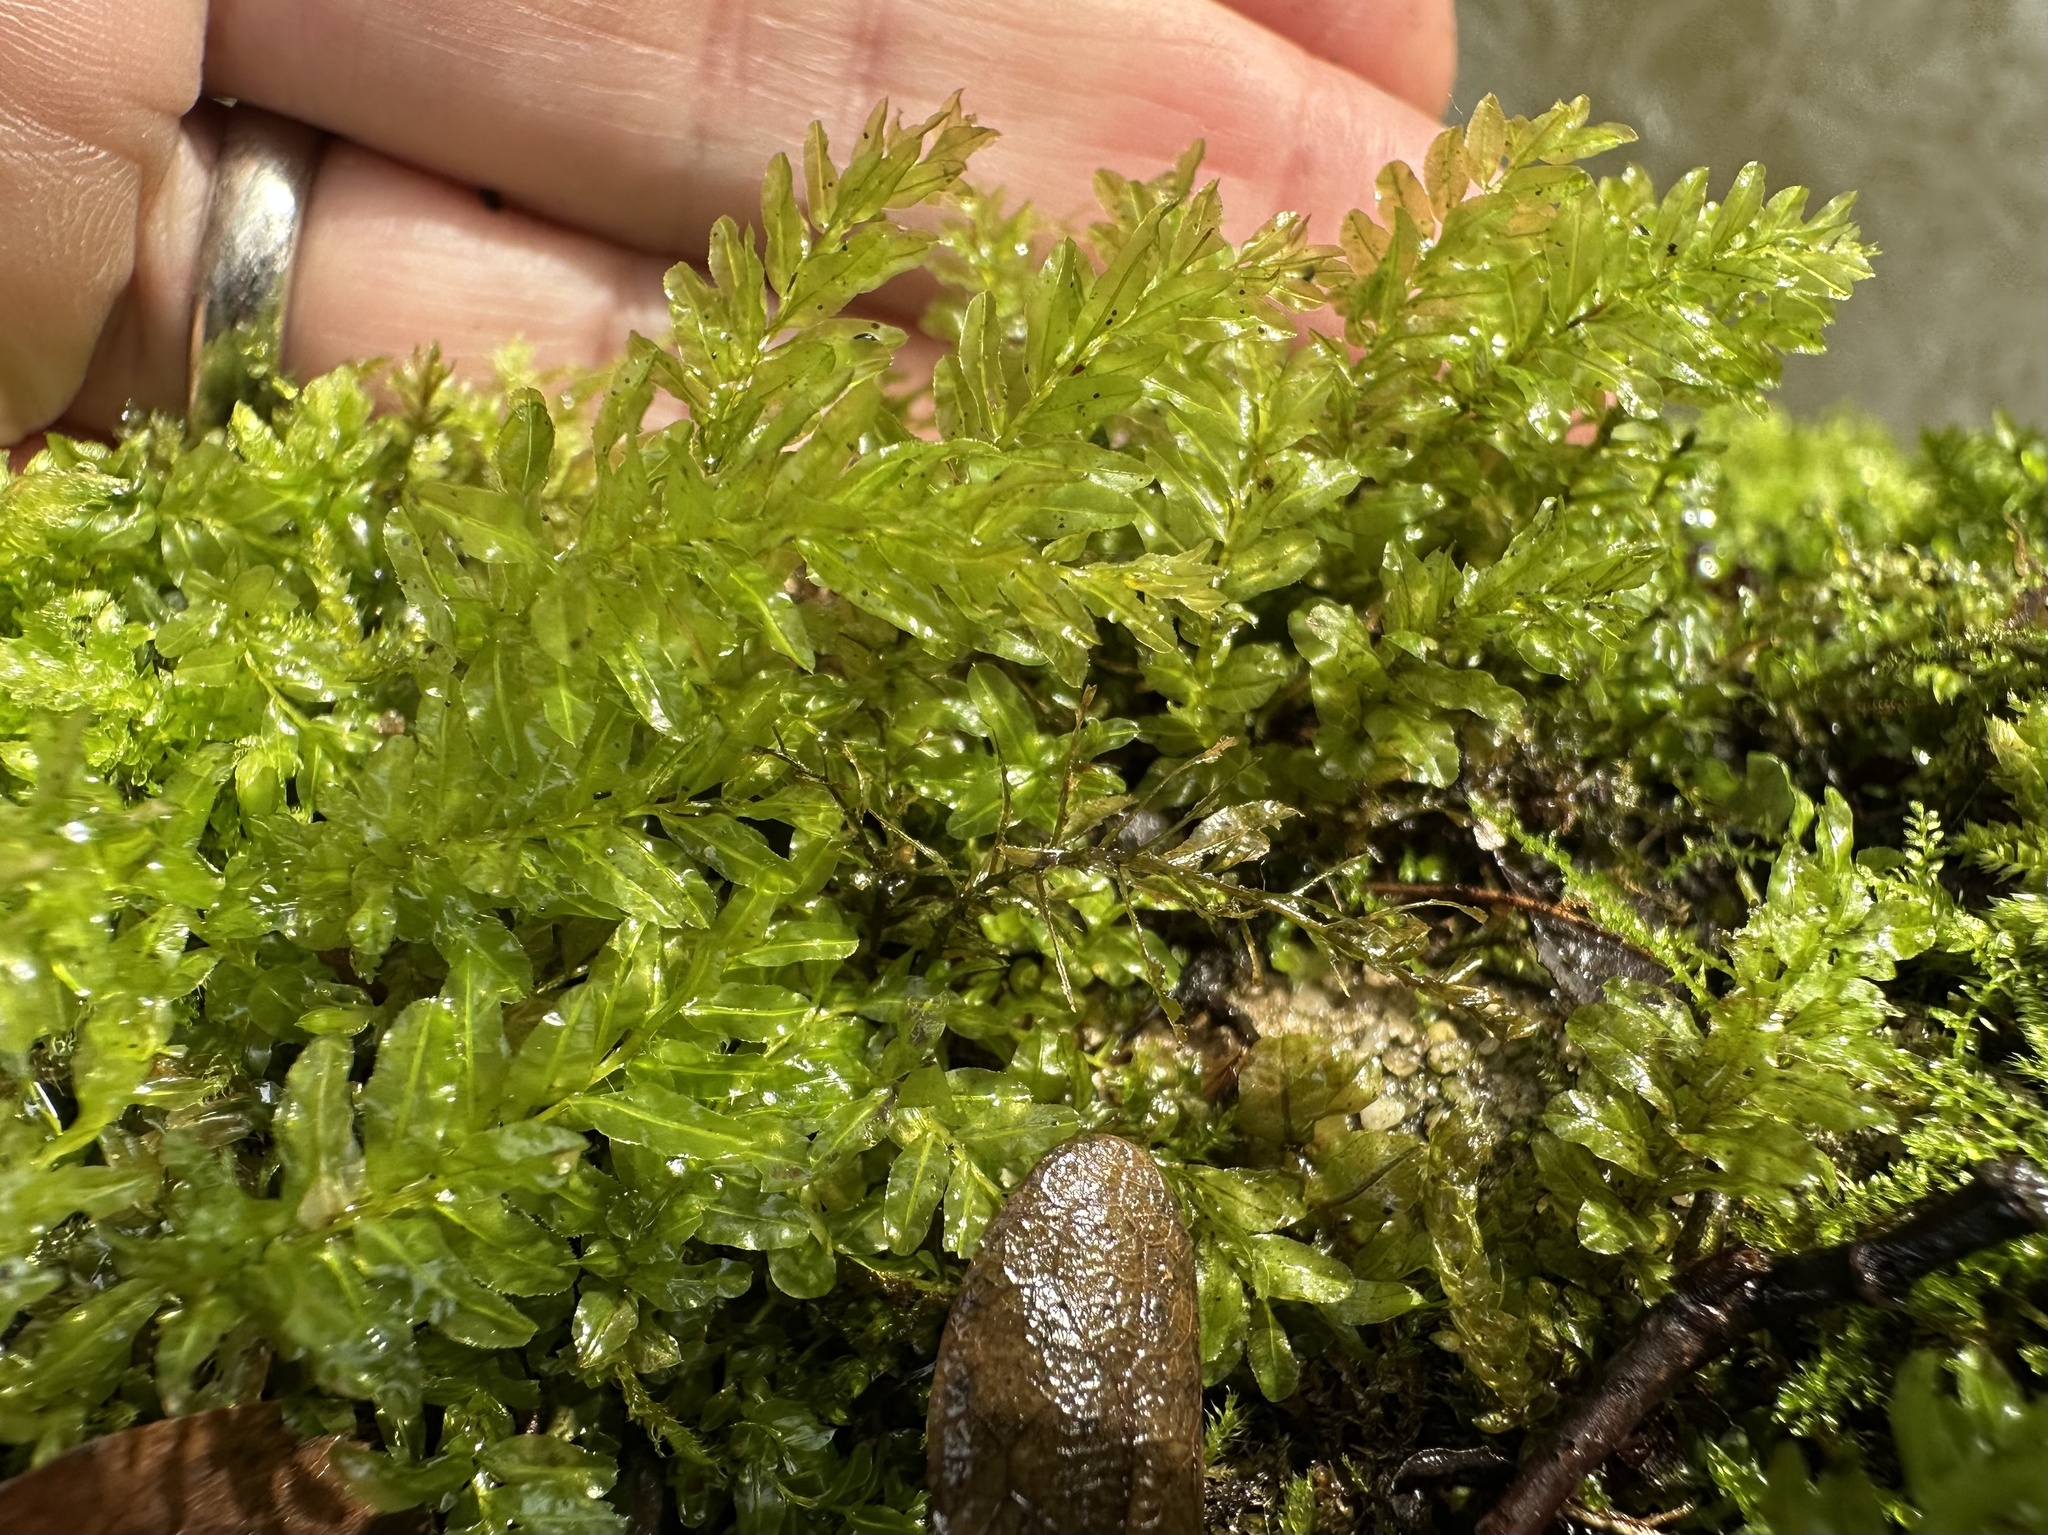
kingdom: Plantae
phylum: Bryophyta
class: Bryopsida
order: Bryales
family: Mniaceae
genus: Plagiomnium
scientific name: Plagiomnium undulatum
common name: Hart's-tongue thyme-moss
